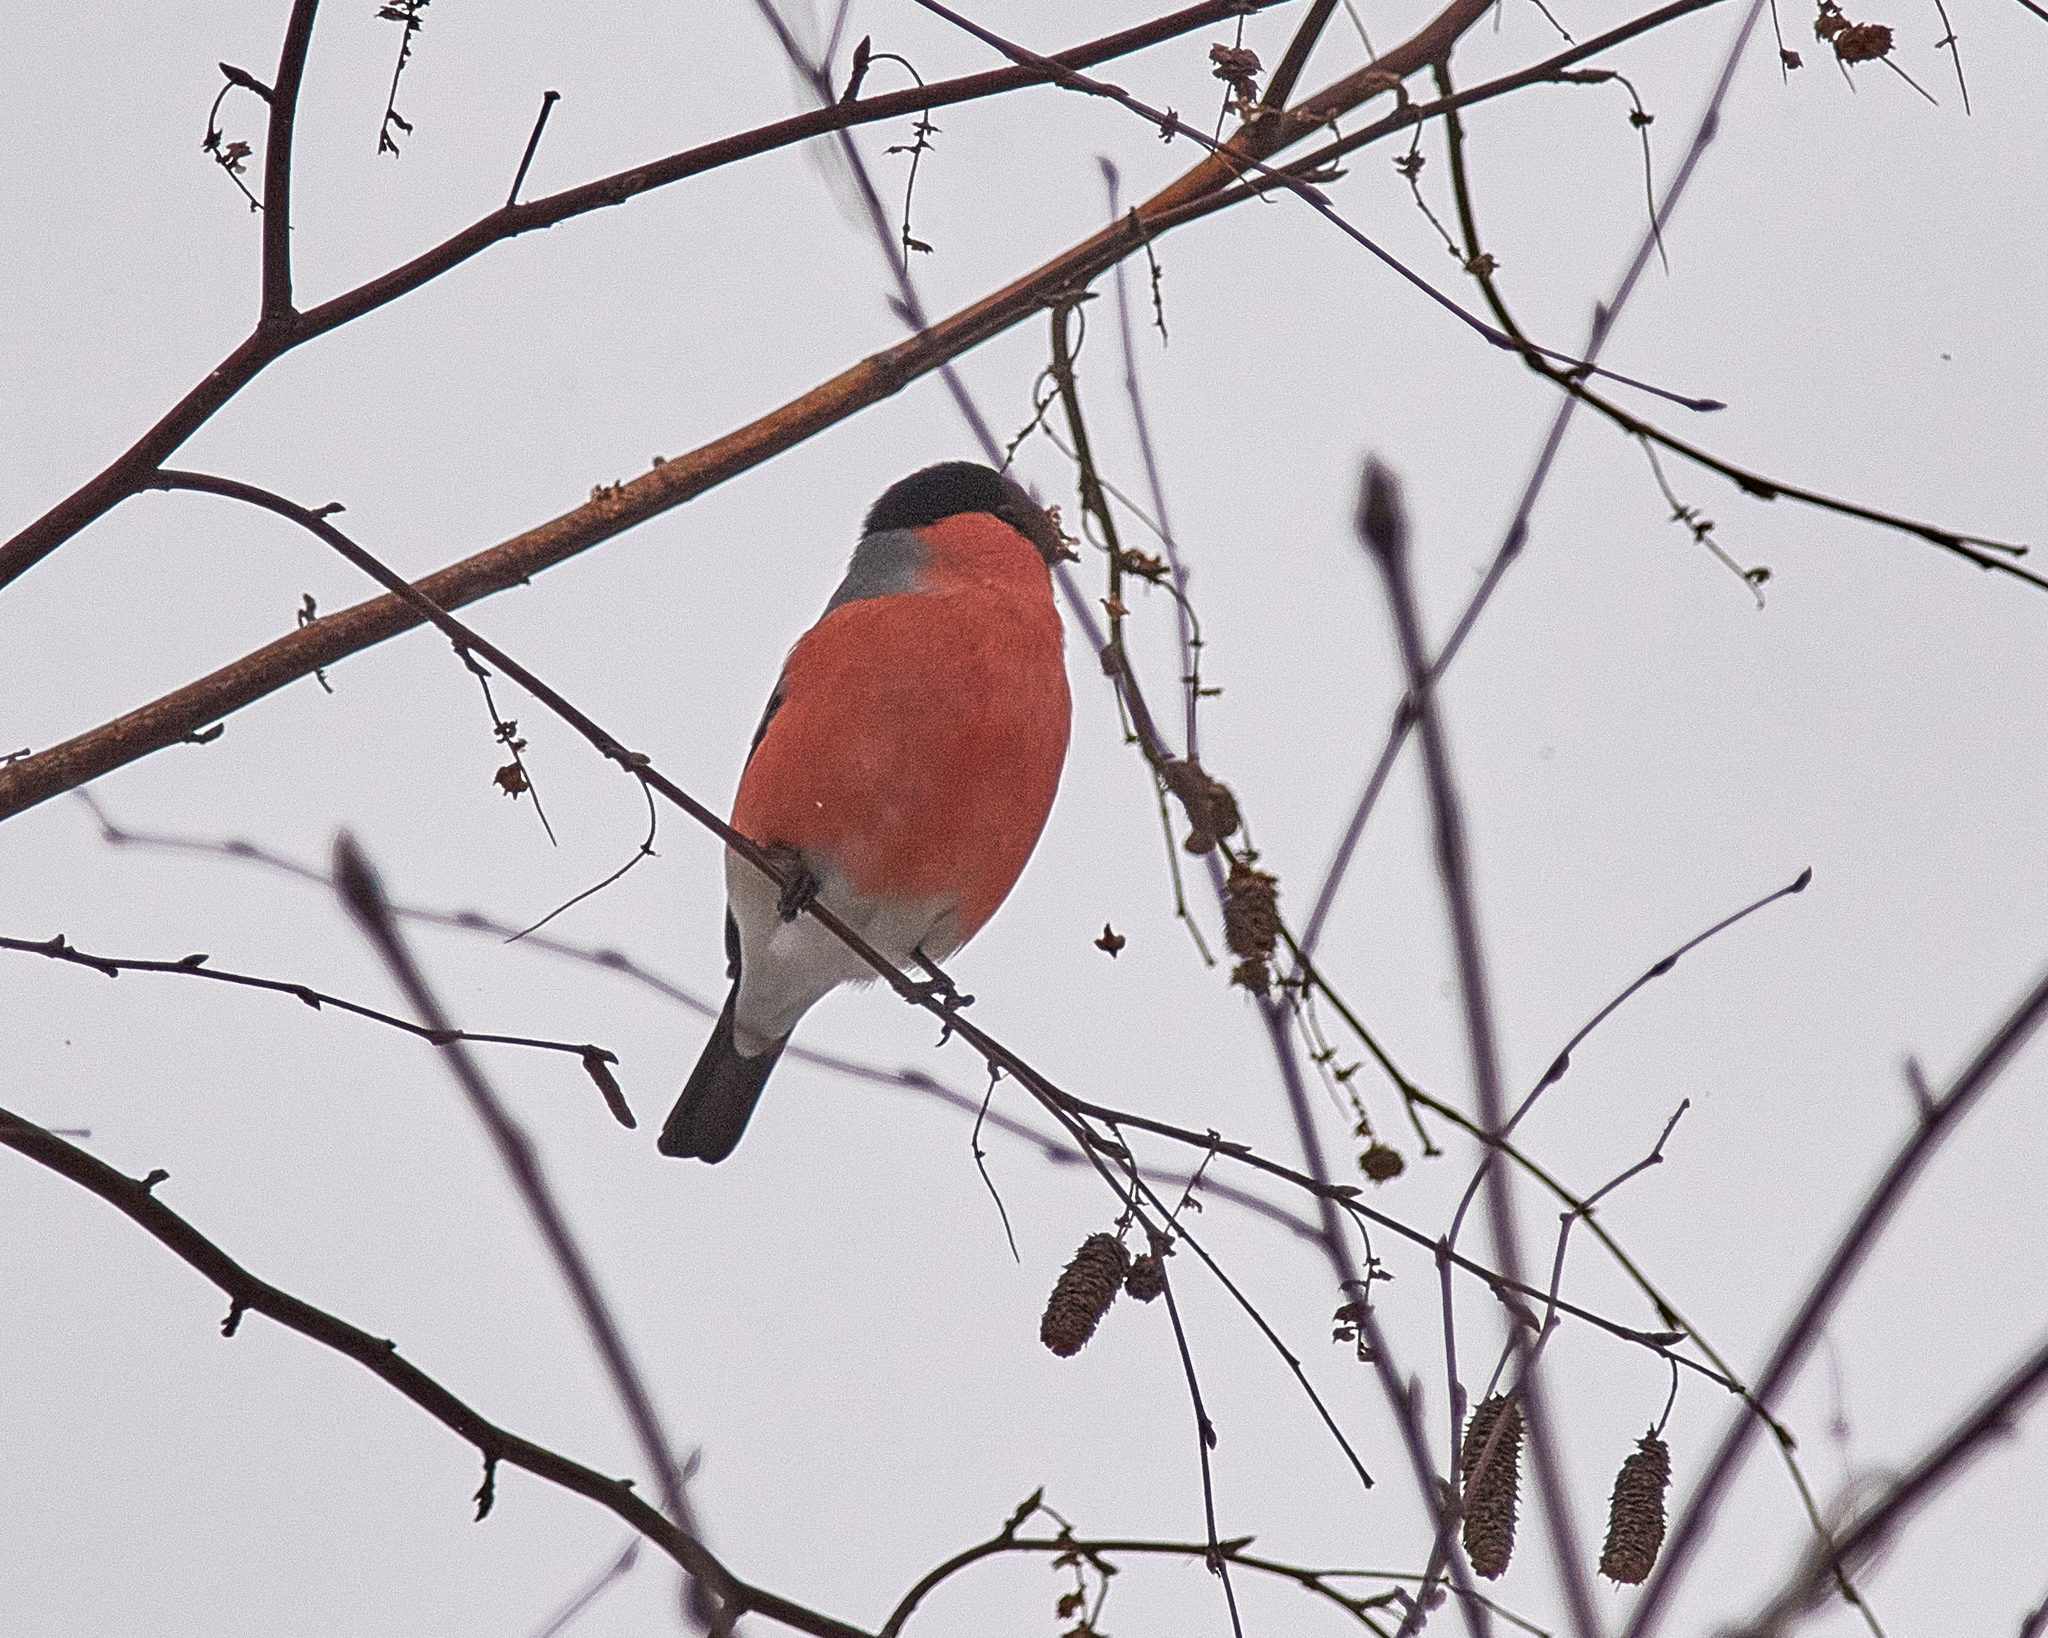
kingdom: Animalia
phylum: Chordata
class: Aves
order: Passeriformes
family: Fringillidae
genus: Pyrrhula
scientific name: Pyrrhula pyrrhula
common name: Eurasian bullfinch
